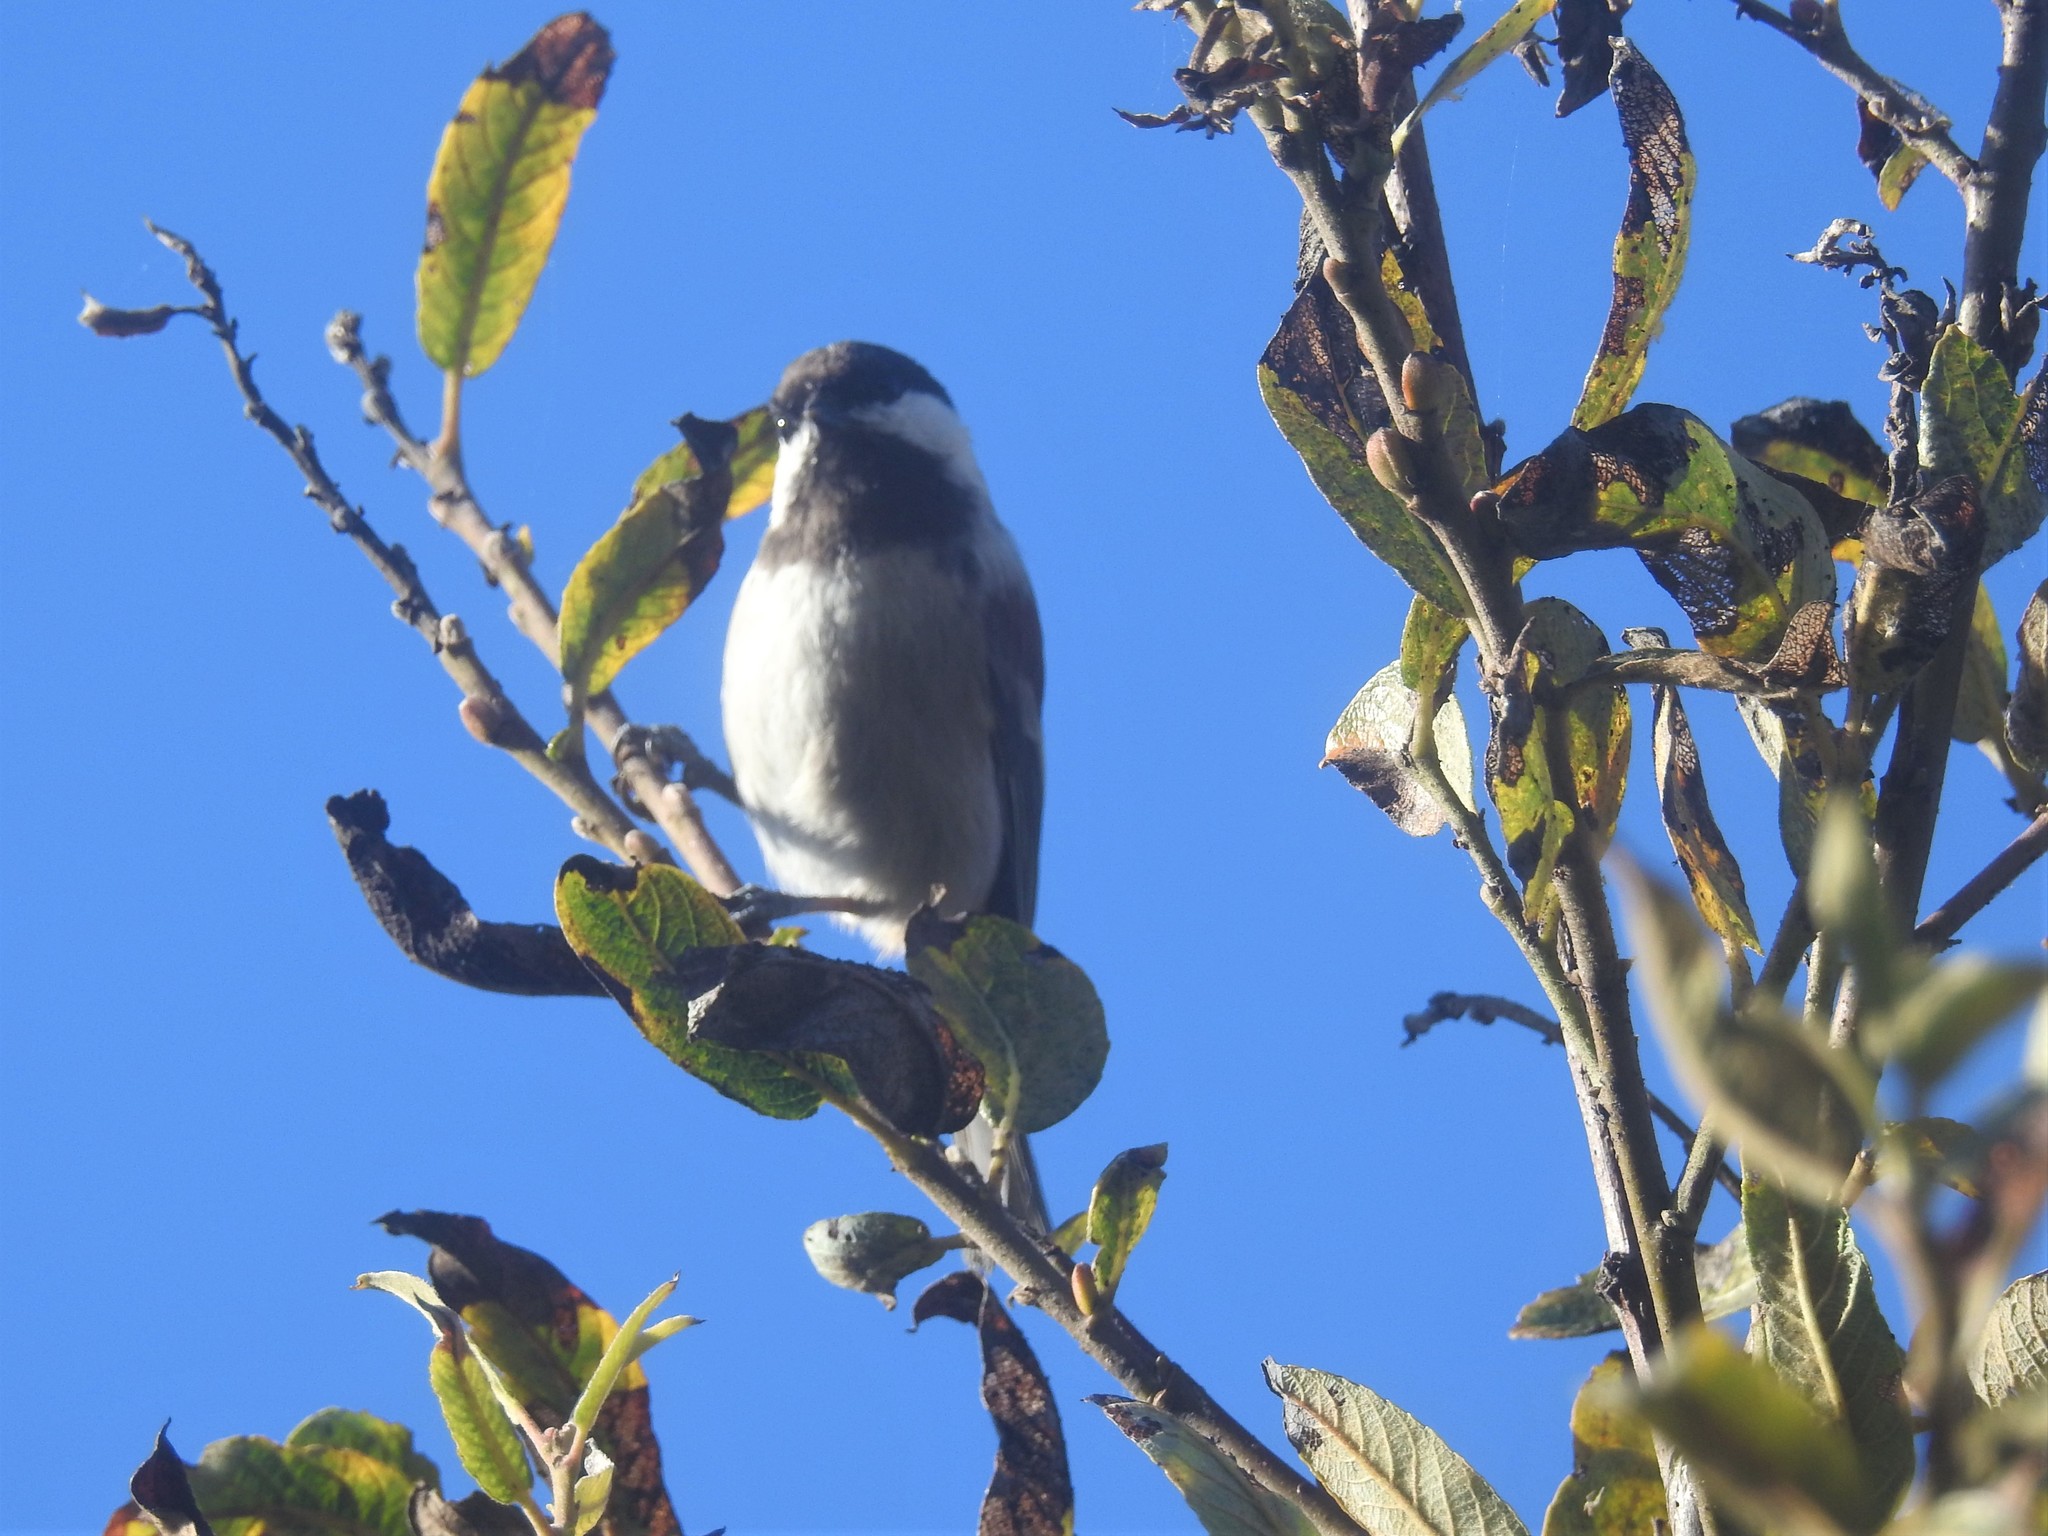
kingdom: Animalia
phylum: Chordata
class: Aves
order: Passeriformes
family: Paridae
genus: Poecile
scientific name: Poecile rufescens
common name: Chestnut-backed chickadee
